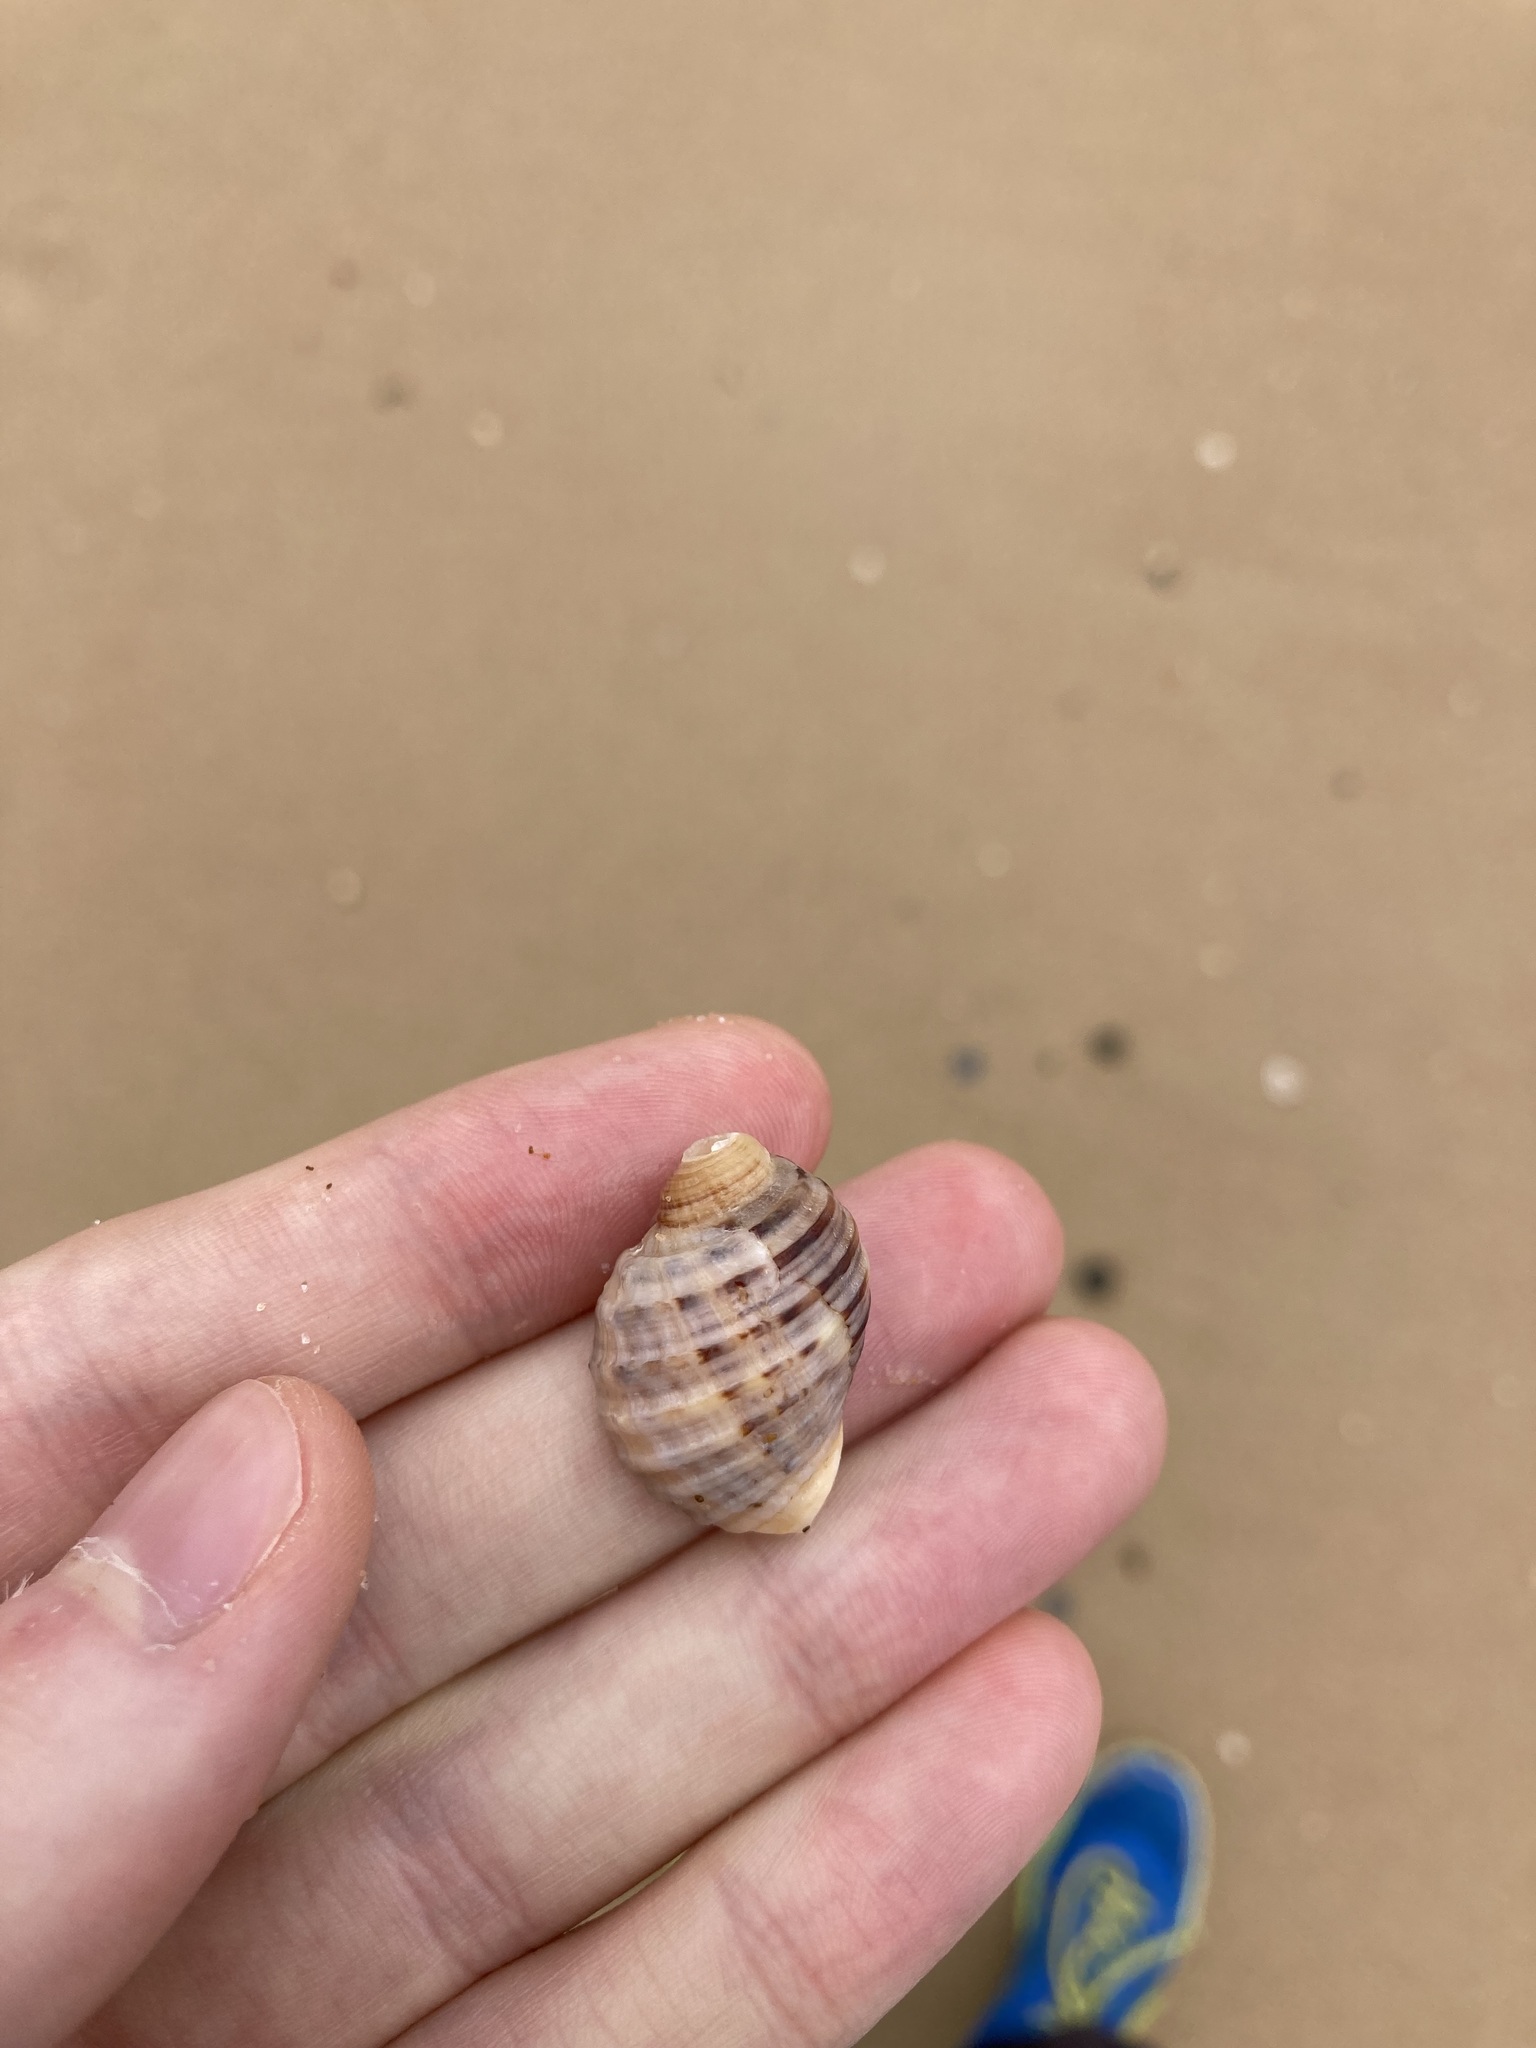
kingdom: Animalia
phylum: Mollusca
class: Gastropoda
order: Neogastropoda
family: Muricidae
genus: Dicathais
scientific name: Dicathais orbita
